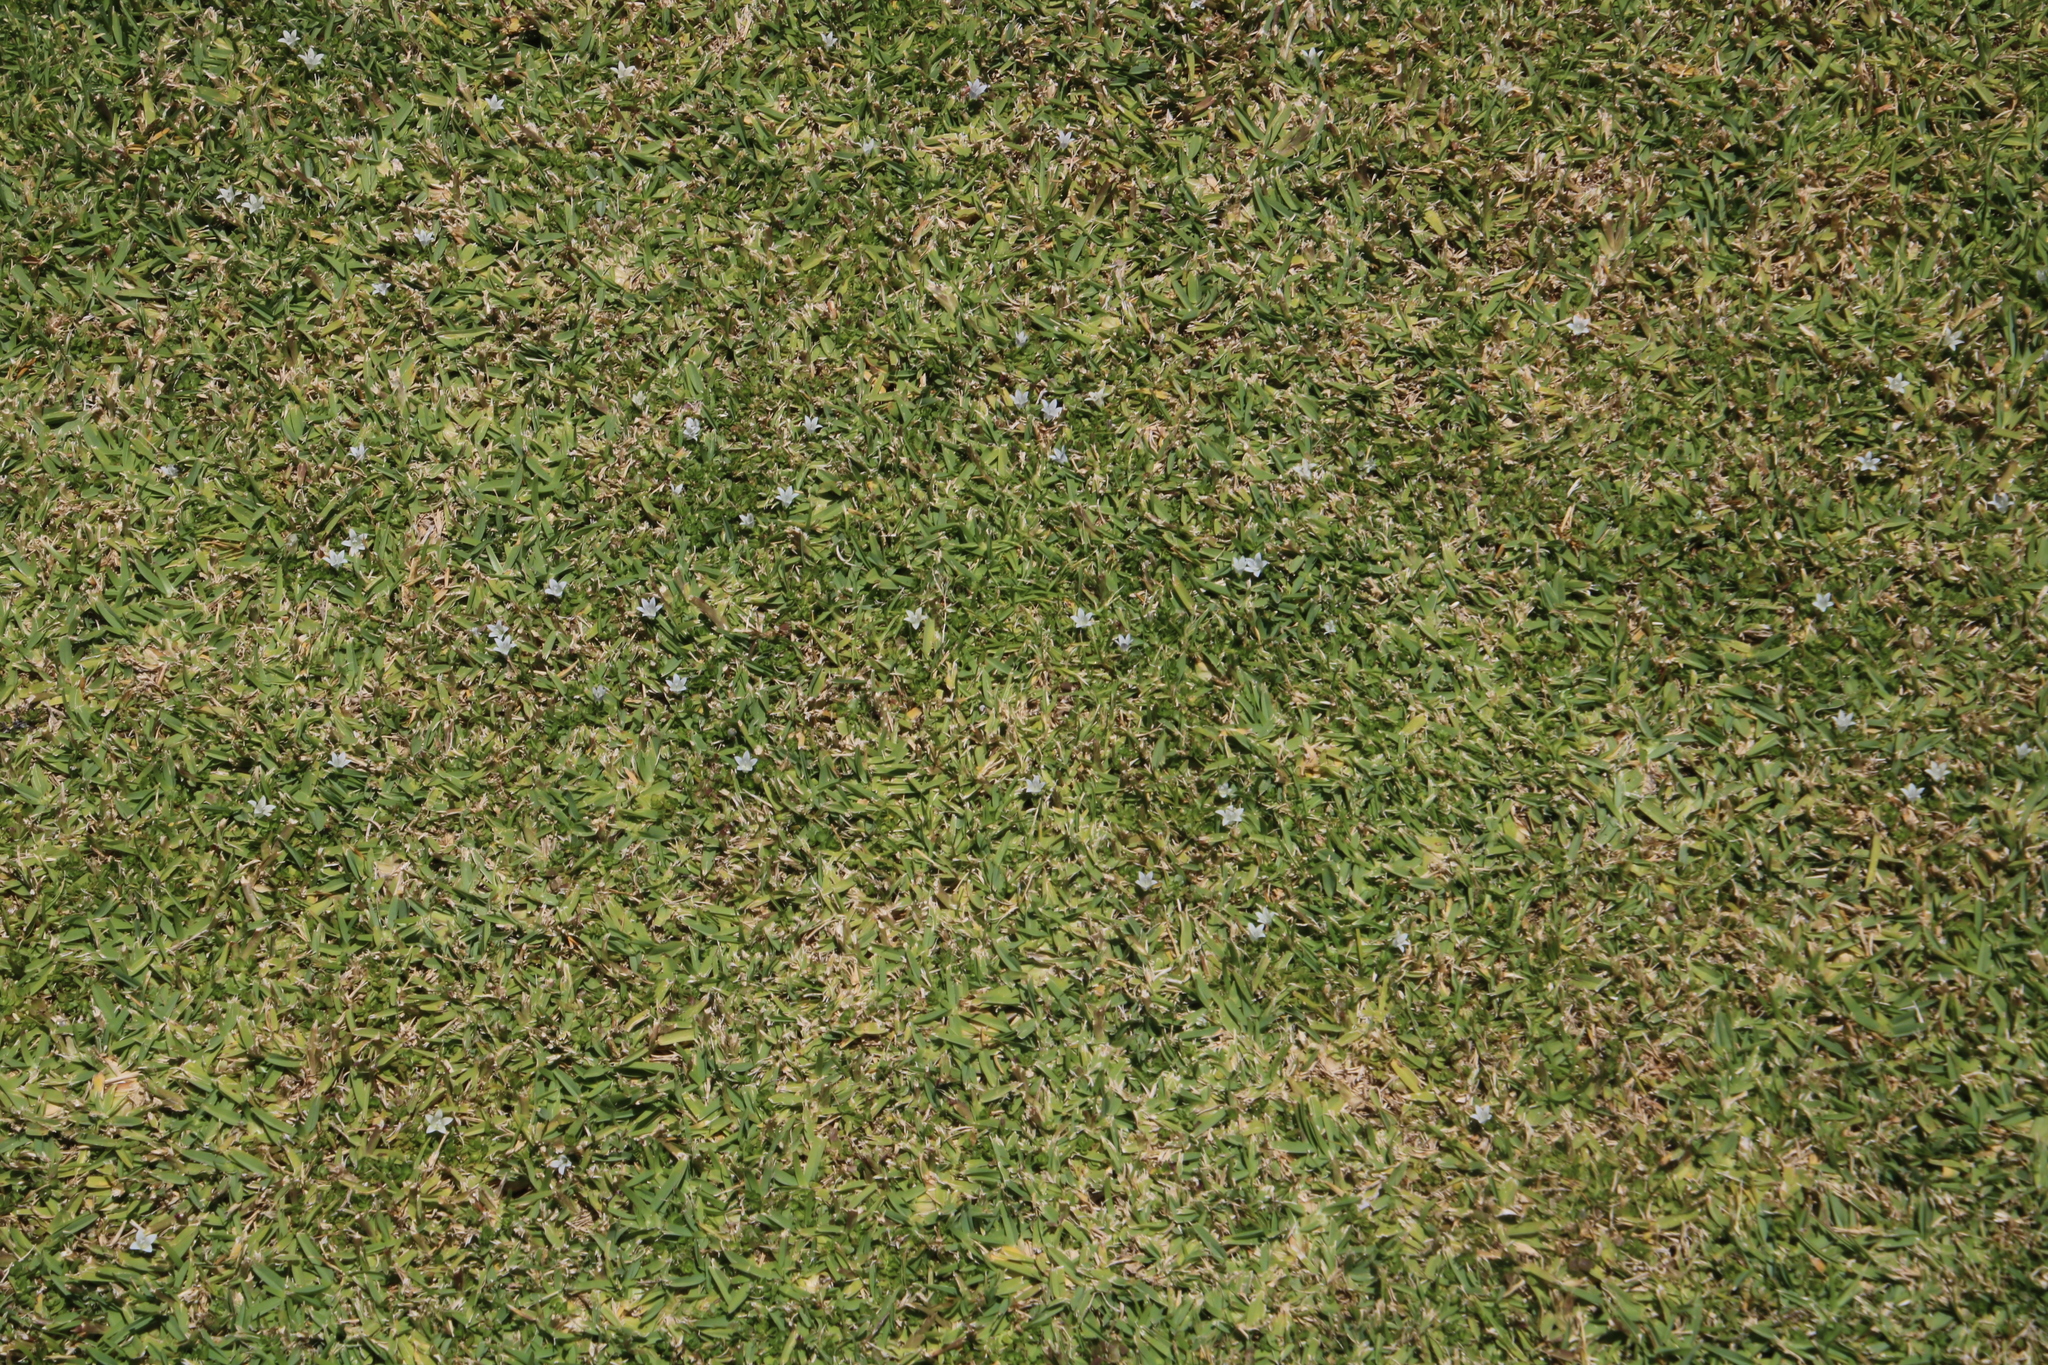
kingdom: Plantae
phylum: Tracheophyta
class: Magnoliopsida
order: Asterales
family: Campanulaceae
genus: Wahlenbergia
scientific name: Wahlenbergia procumbens
